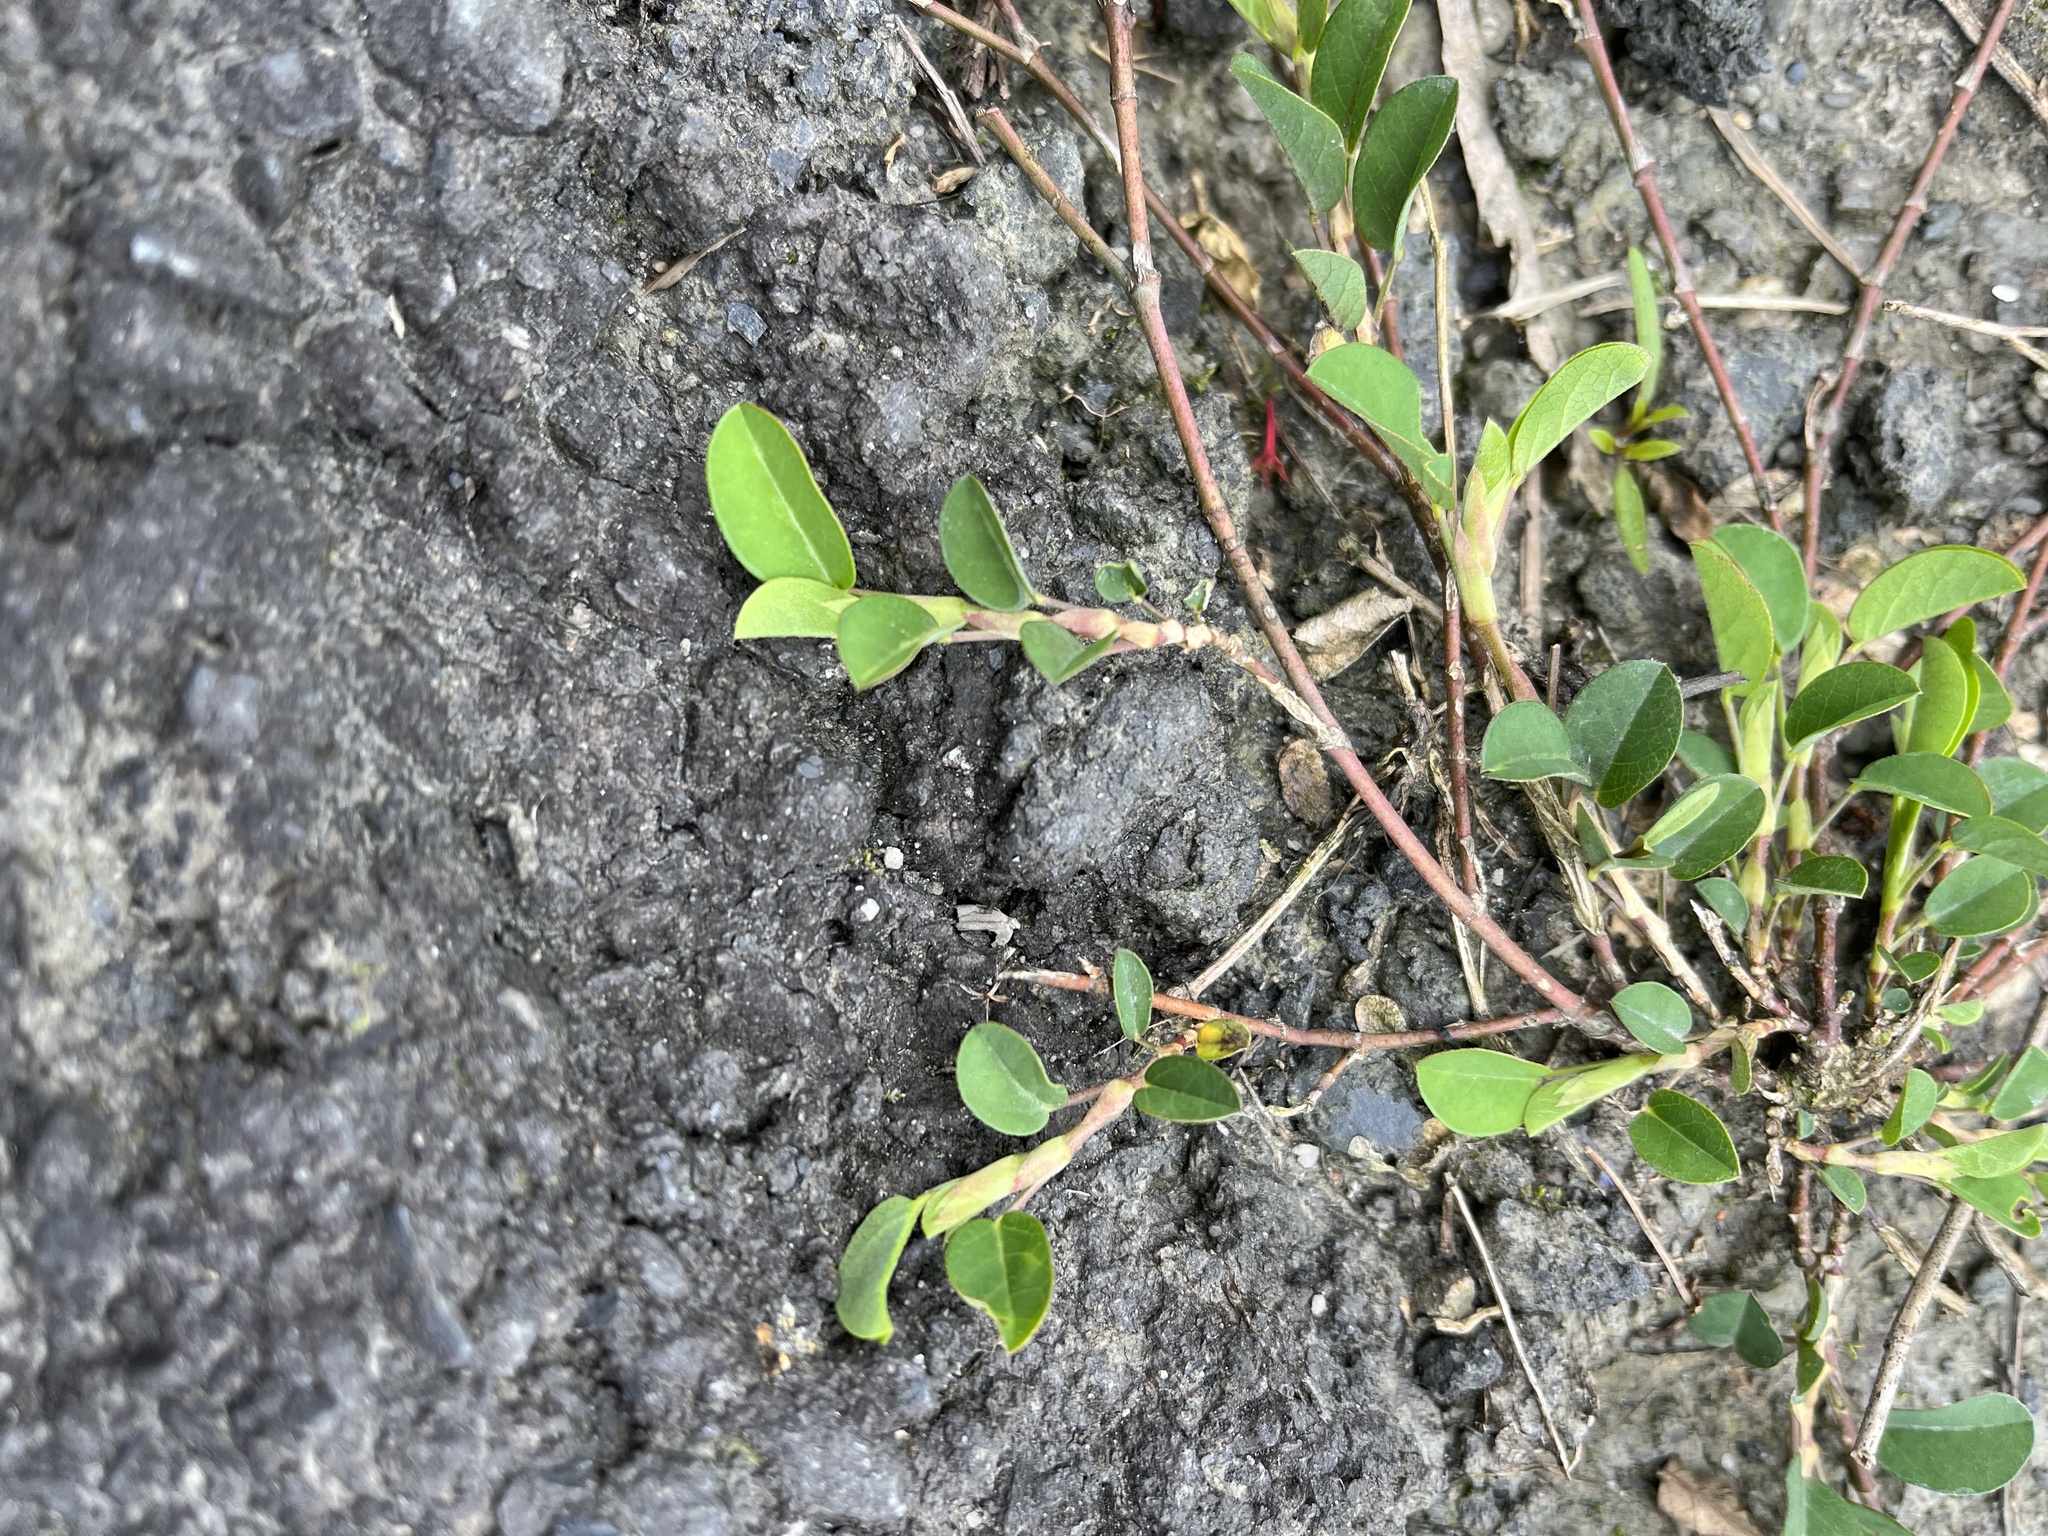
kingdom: Plantae
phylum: Tracheophyta
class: Magnoliopsida
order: Fabales
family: Fabaceae
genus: Alysicarpus
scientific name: Alysicarpus vaginalis
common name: White moneywort
